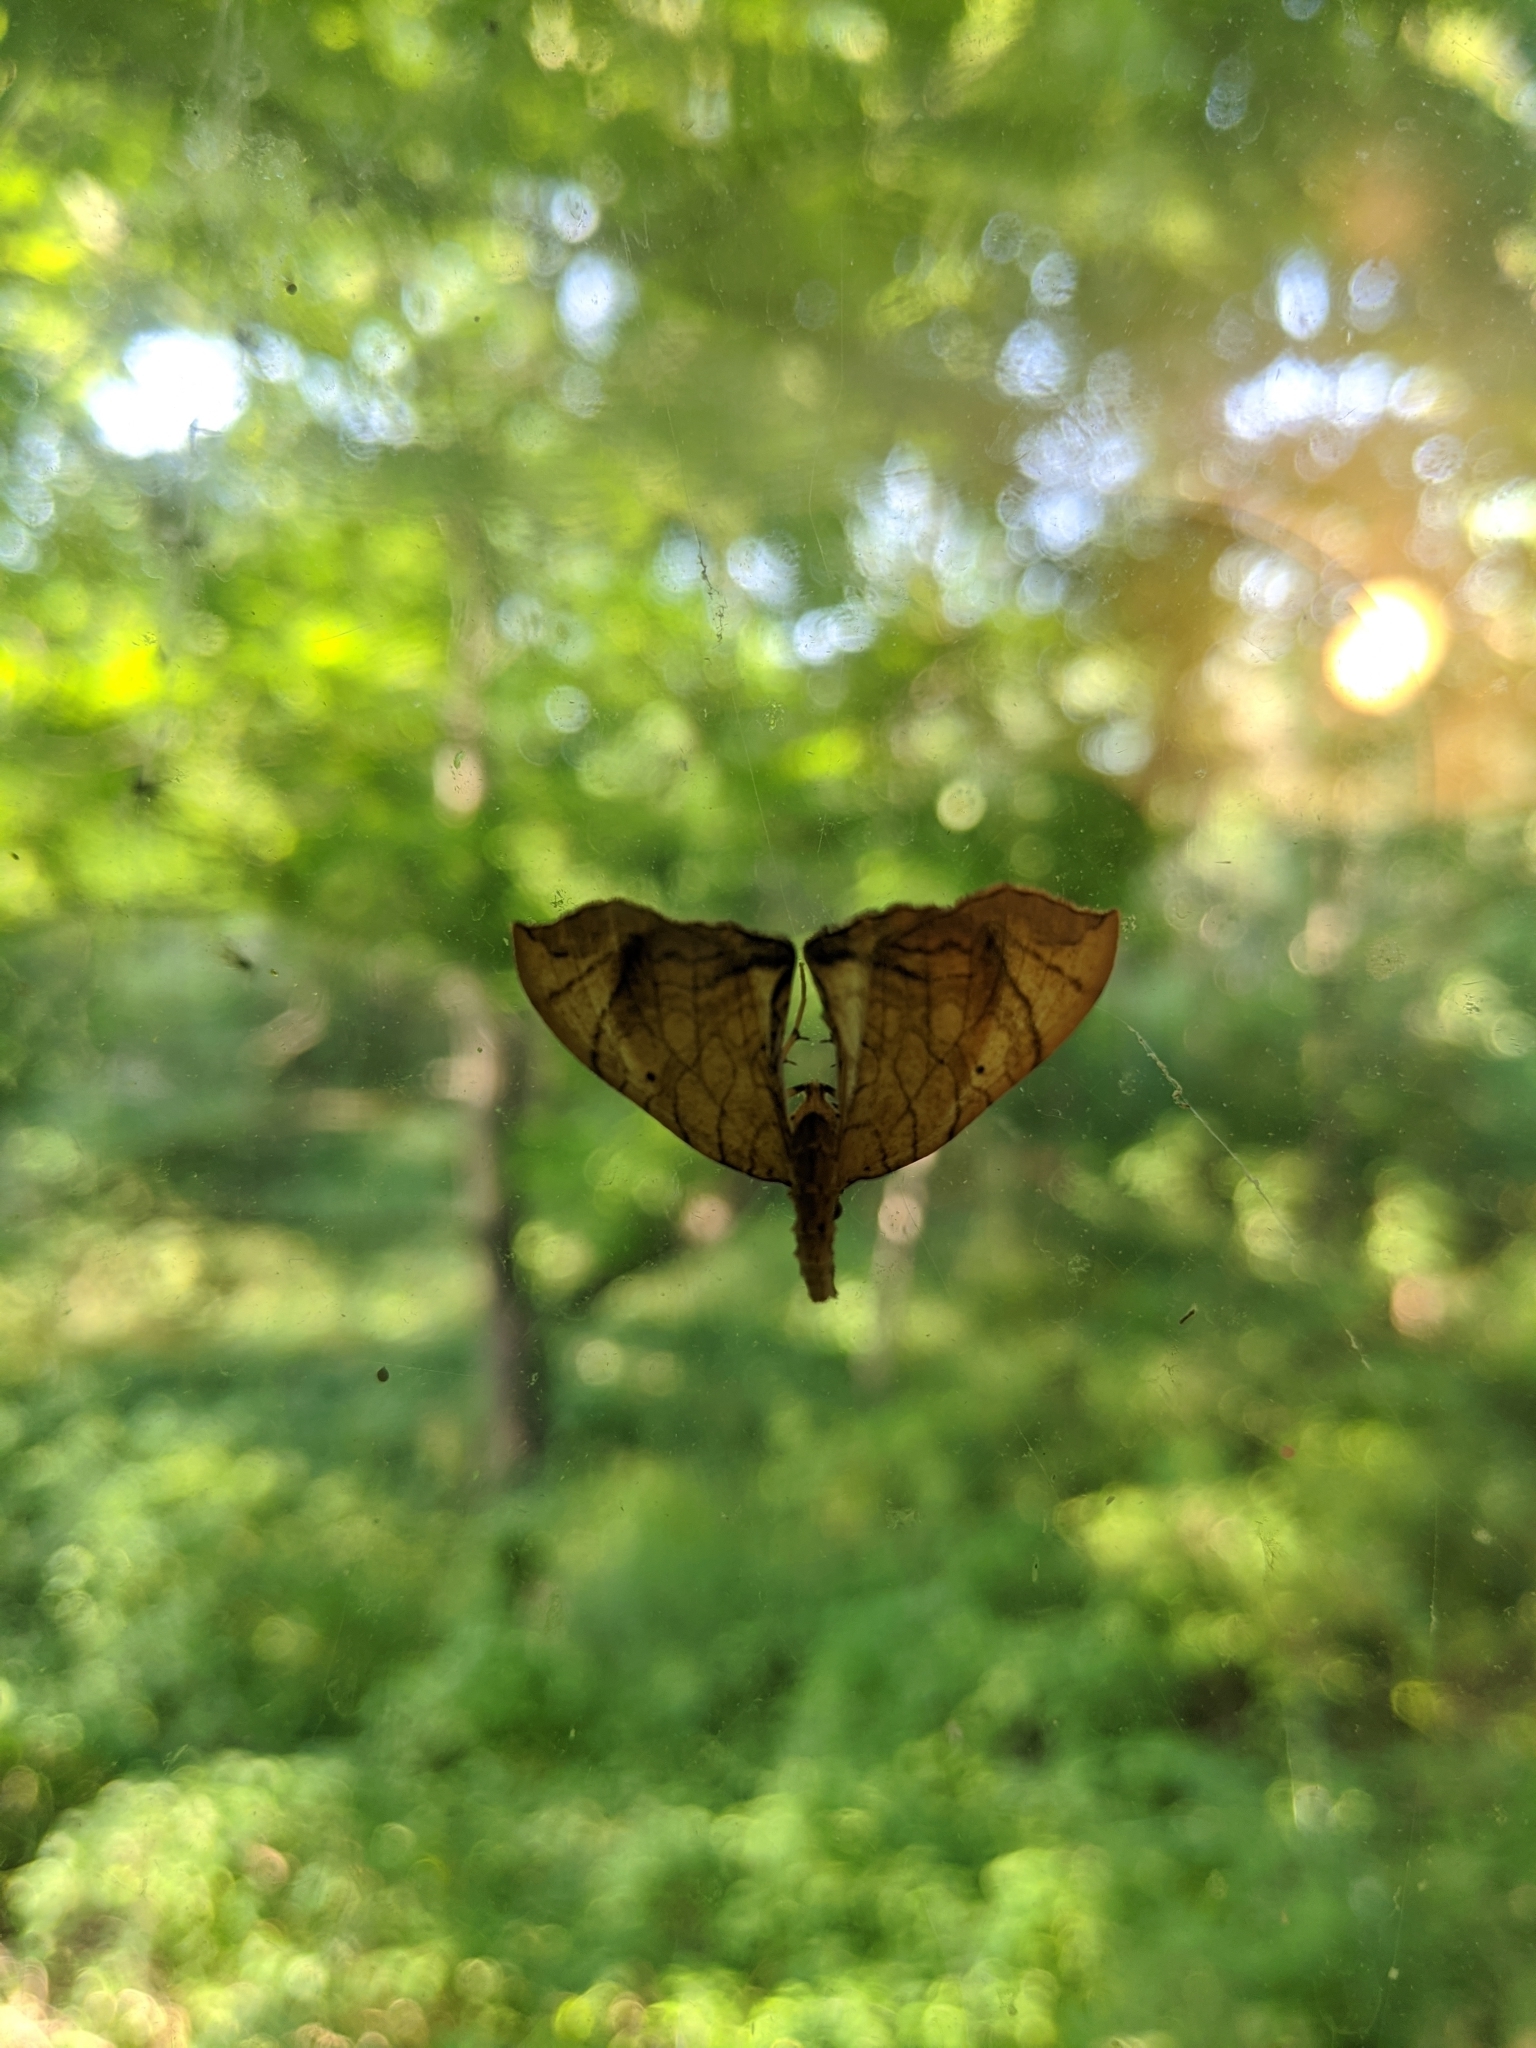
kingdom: Animalia
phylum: Arthropoda
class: Insecta
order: Lepidoptera
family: Geometridae
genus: Eulithis
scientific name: Eulithis gracilineata
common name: Greater grapevine looper moth
